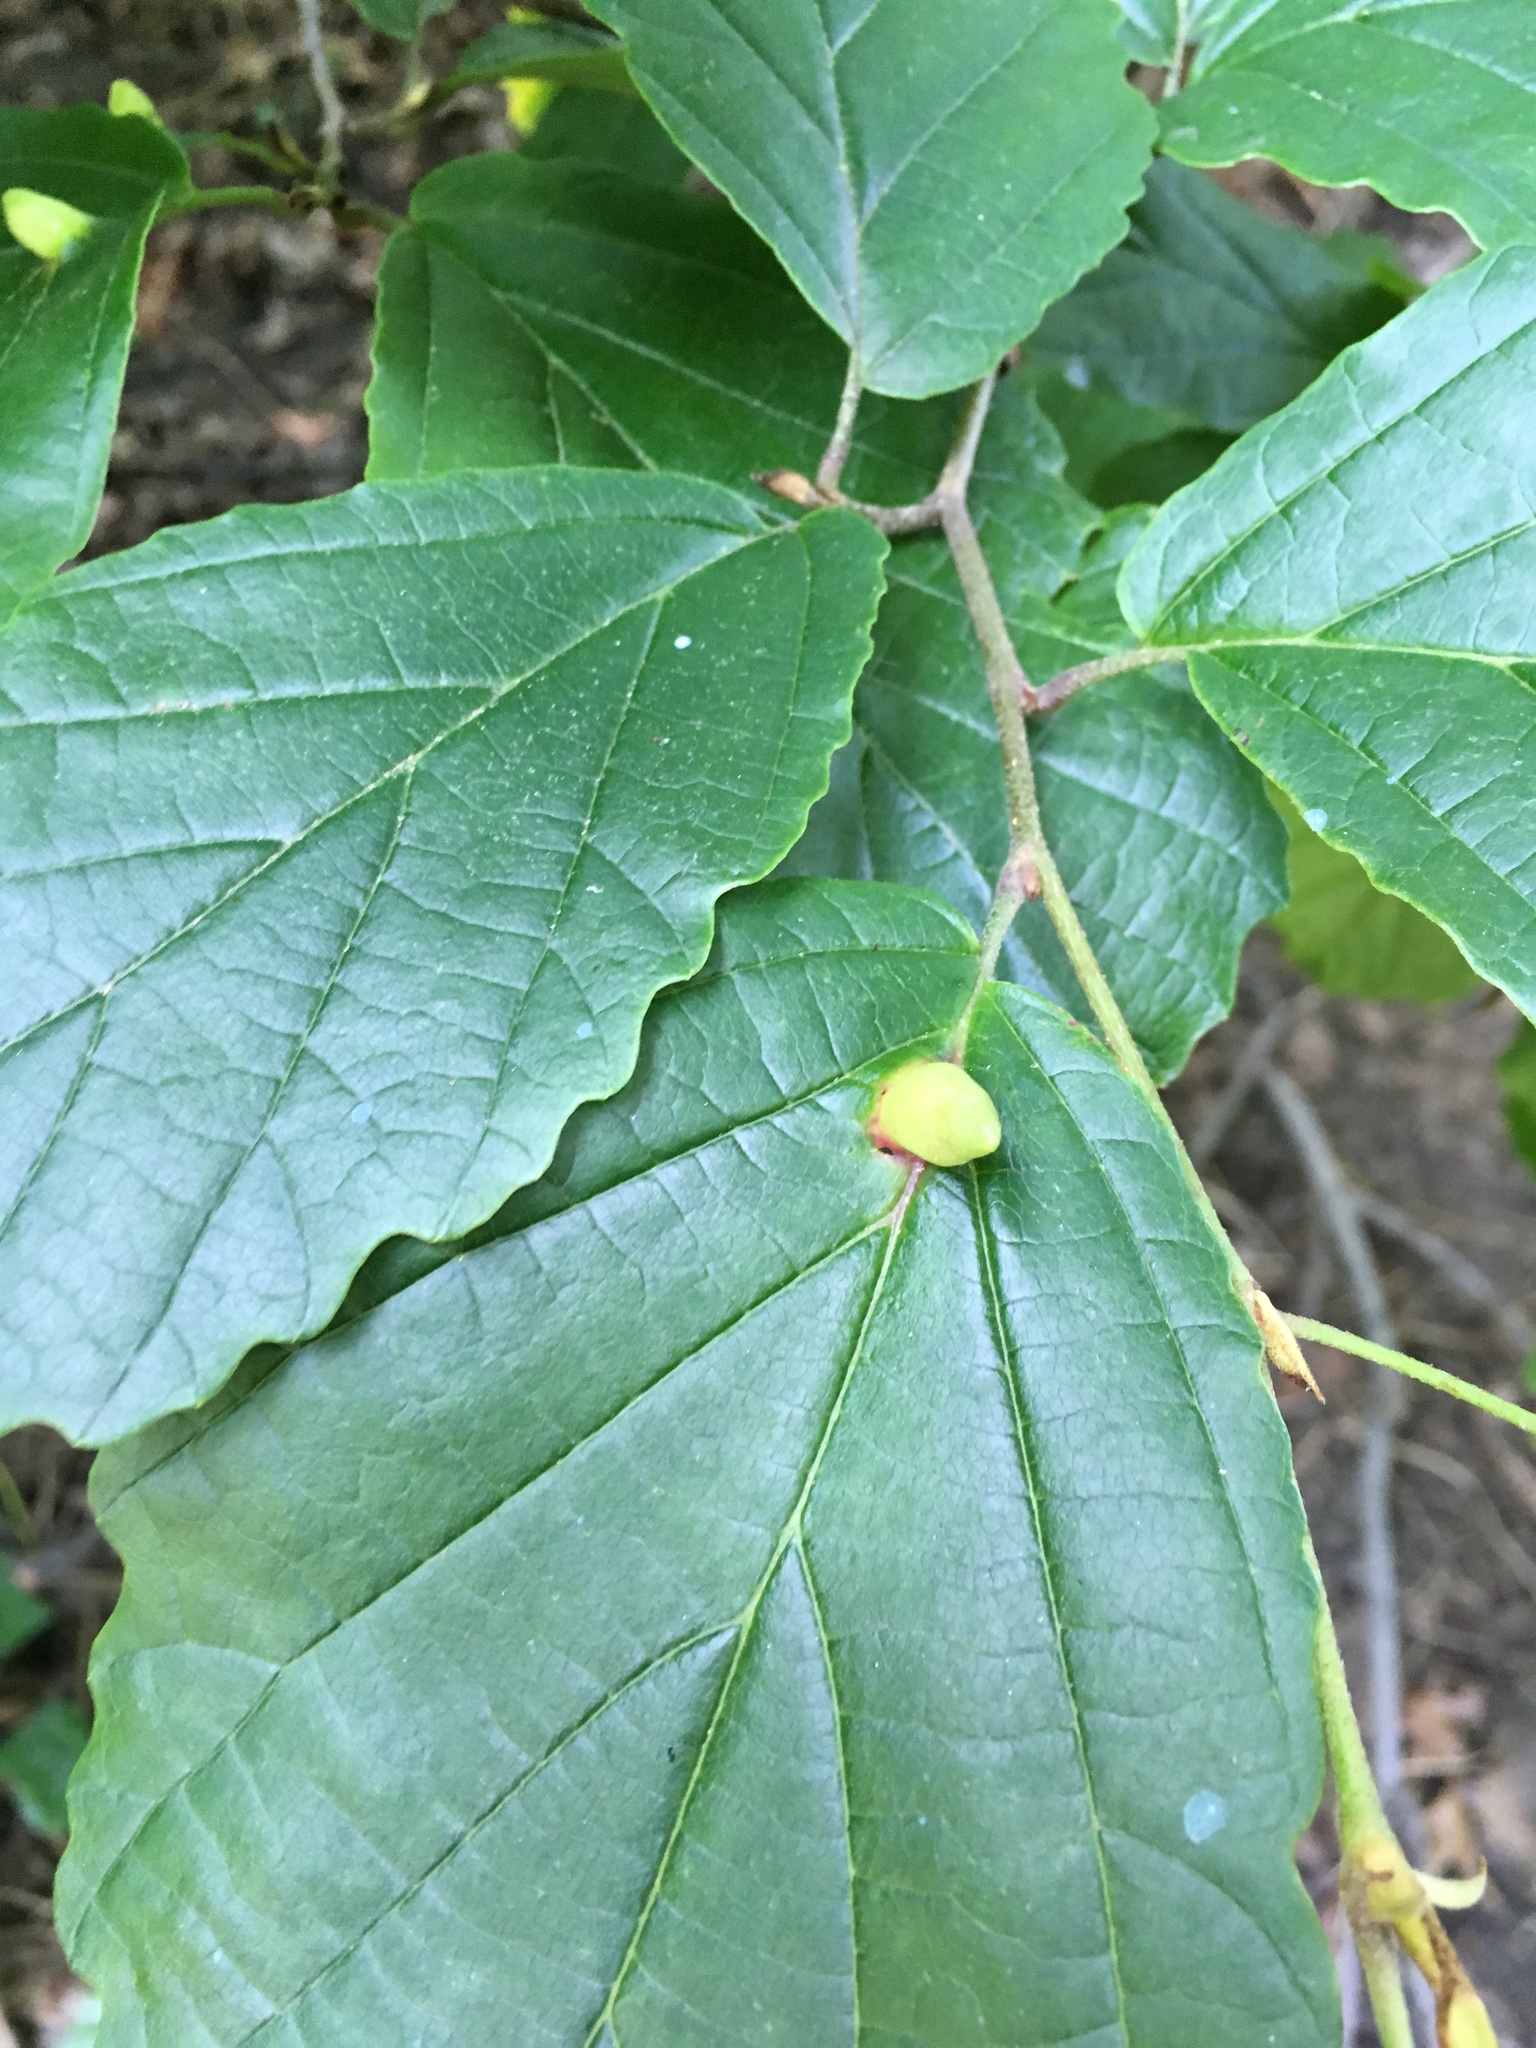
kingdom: Animalia
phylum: Arthropoda
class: Insecta
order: Hemiptera
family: Aphididae
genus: Hormaphis
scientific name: Hormaphis hamamelidis
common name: Witch-hazel cone gall aphid
